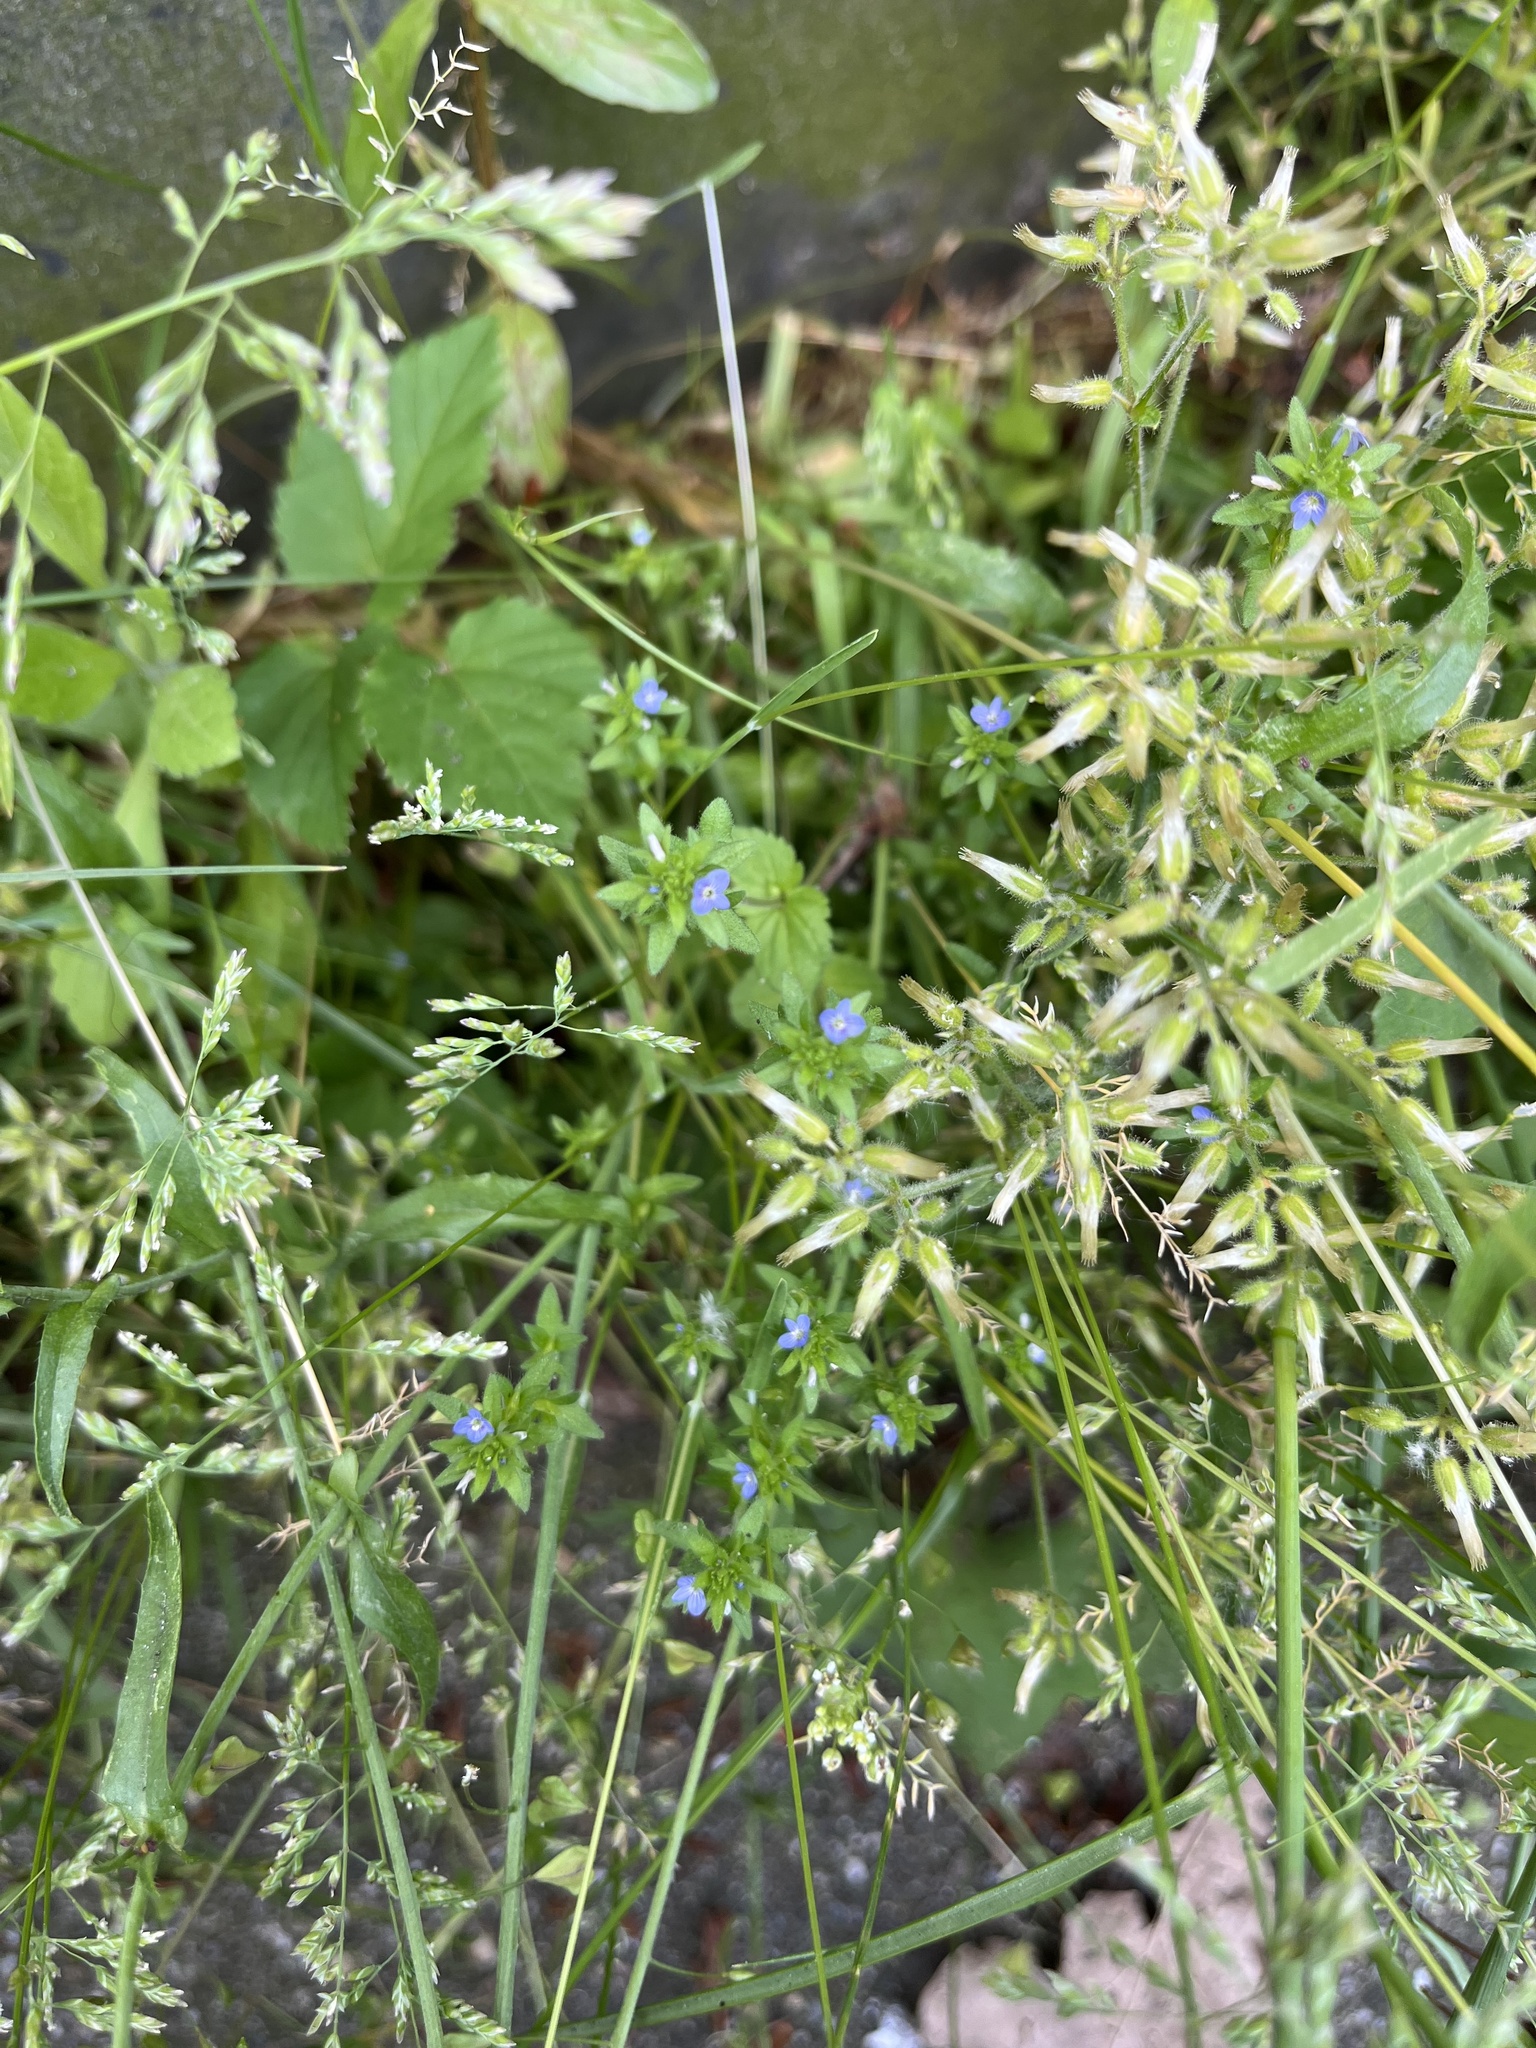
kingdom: Plantae
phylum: Tracheophyta
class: Magnoliopsida
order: Lamiales
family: Plantaginaceae
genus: Veronica
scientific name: Veronica arvensis
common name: Corn speedwell
